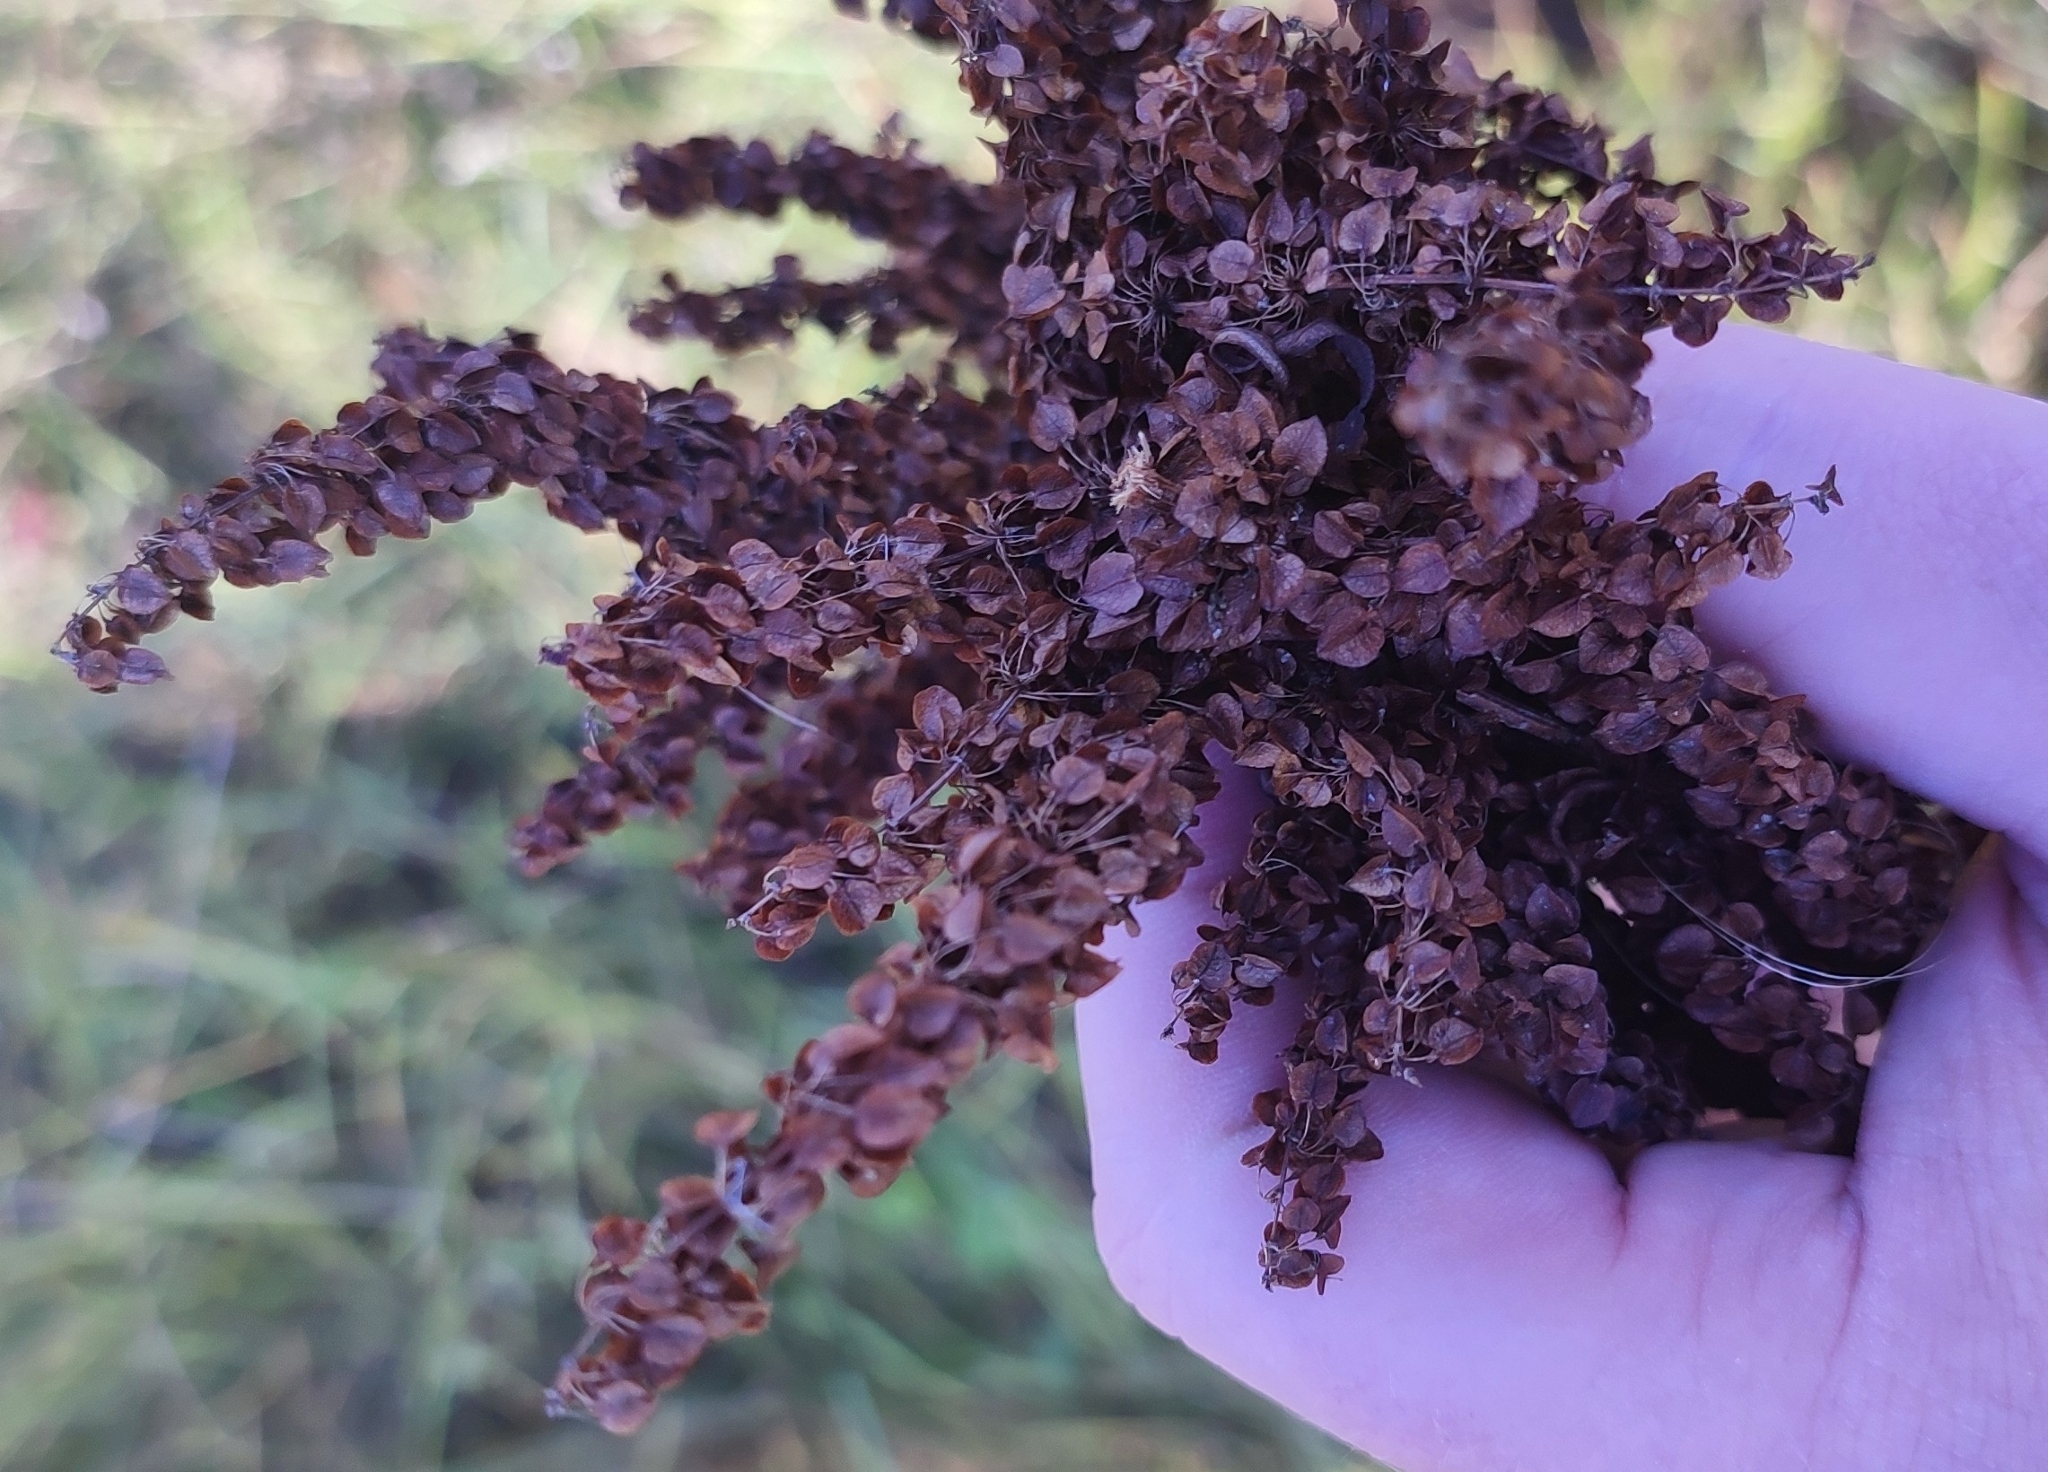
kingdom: Plantae
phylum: Tracheophyta
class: Magnoliopsida
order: Caryophyllales
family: Polygonaceae
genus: Rumex
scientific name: Rumex pseudonatronatus
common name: Field dock
